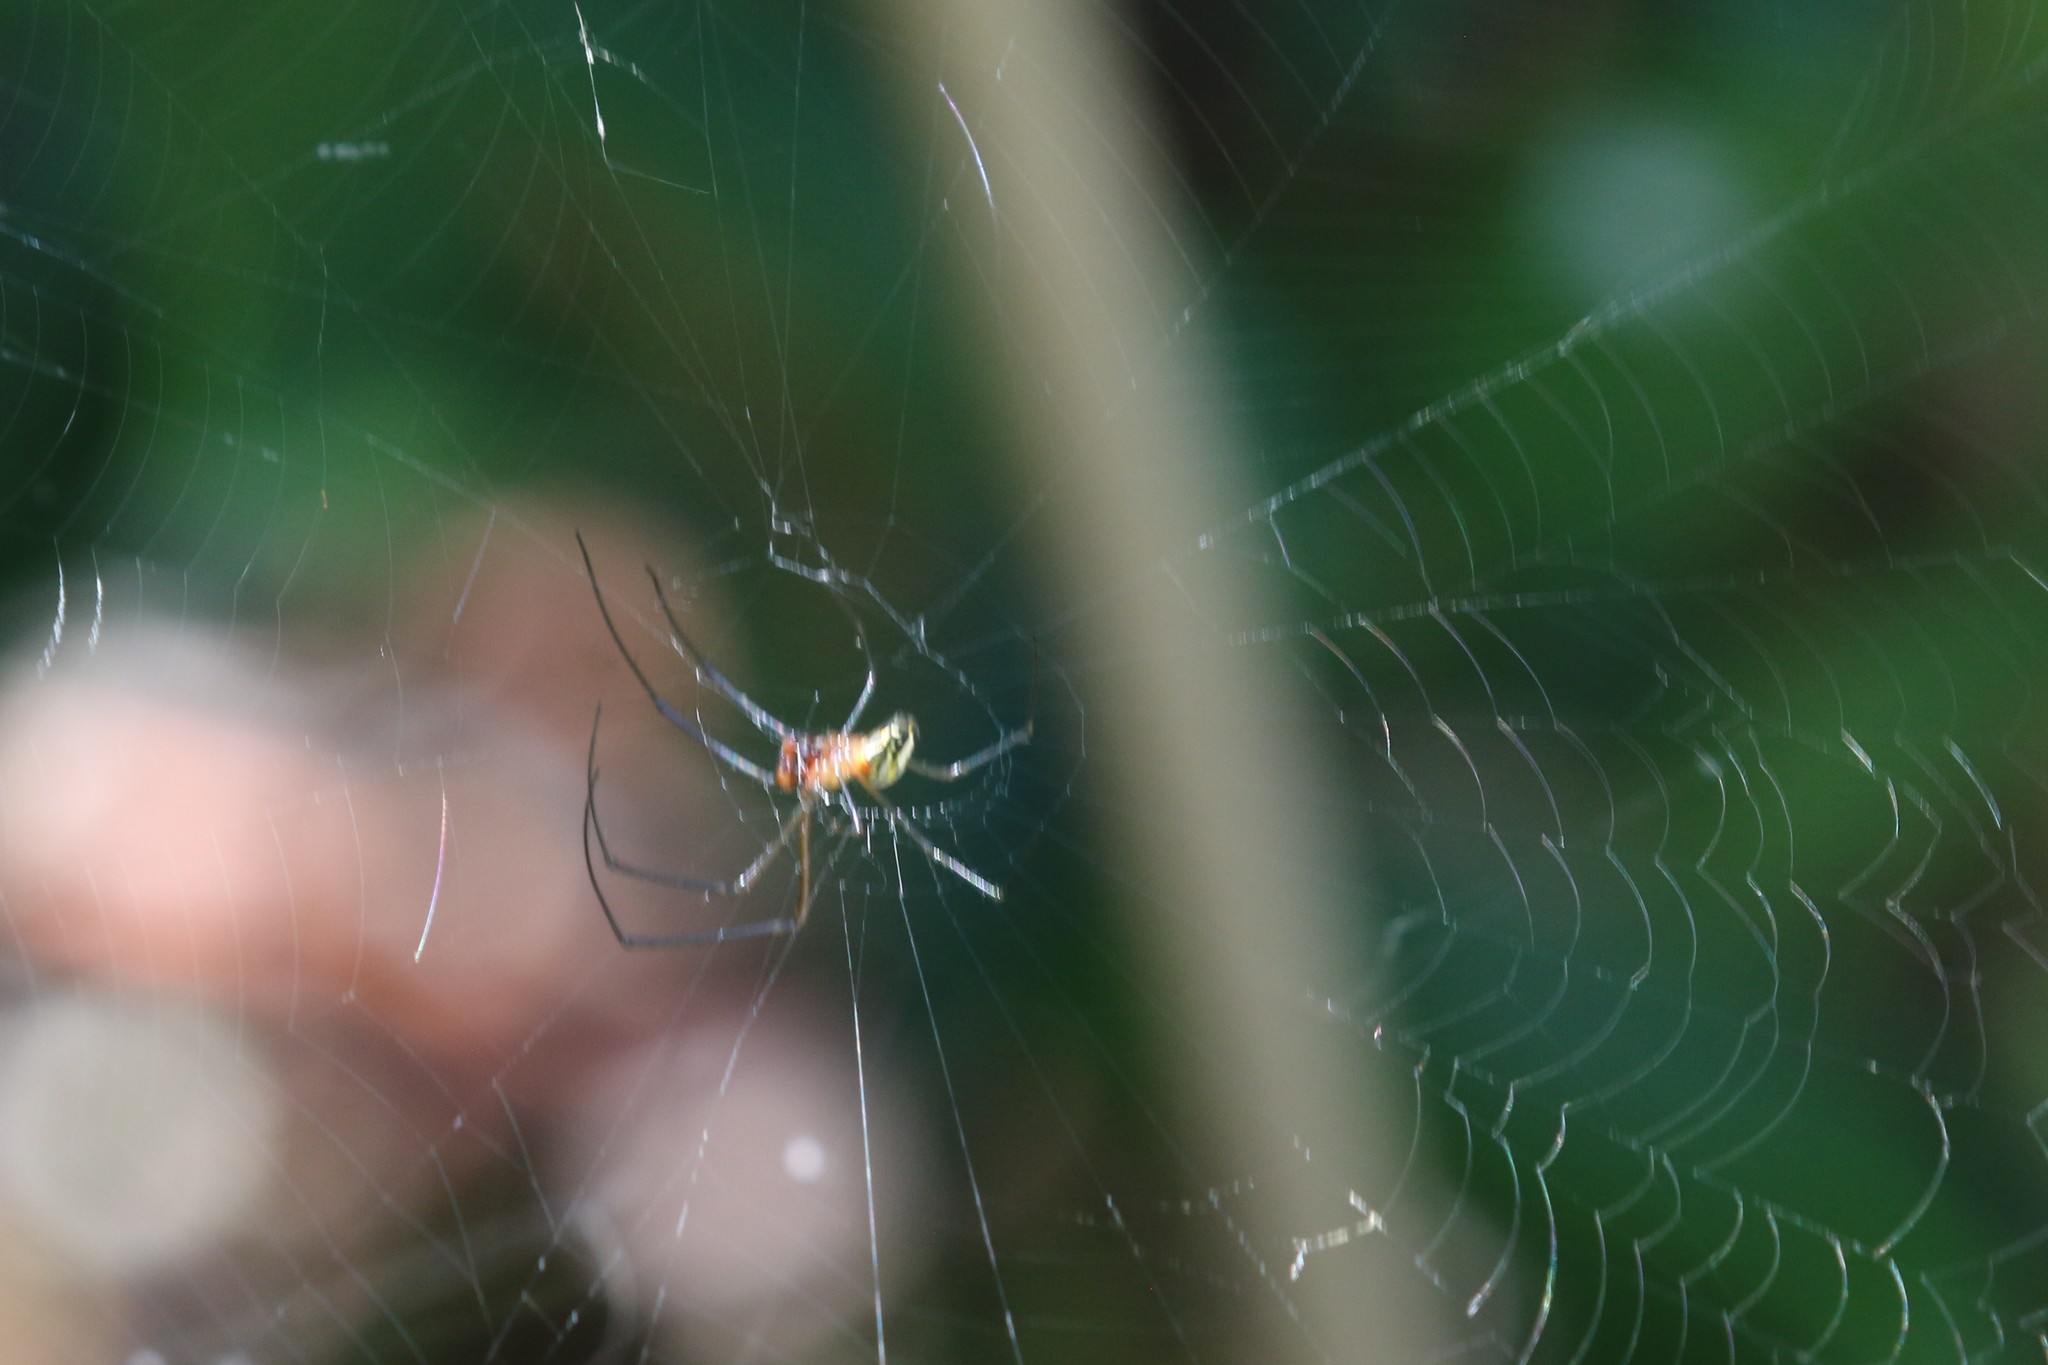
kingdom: Animalia
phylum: Arthropoda
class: Arachnida
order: Araneae
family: Tetragnathidae
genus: Leucauge
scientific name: Leucauge argyra
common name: Longjawed orb weavers
